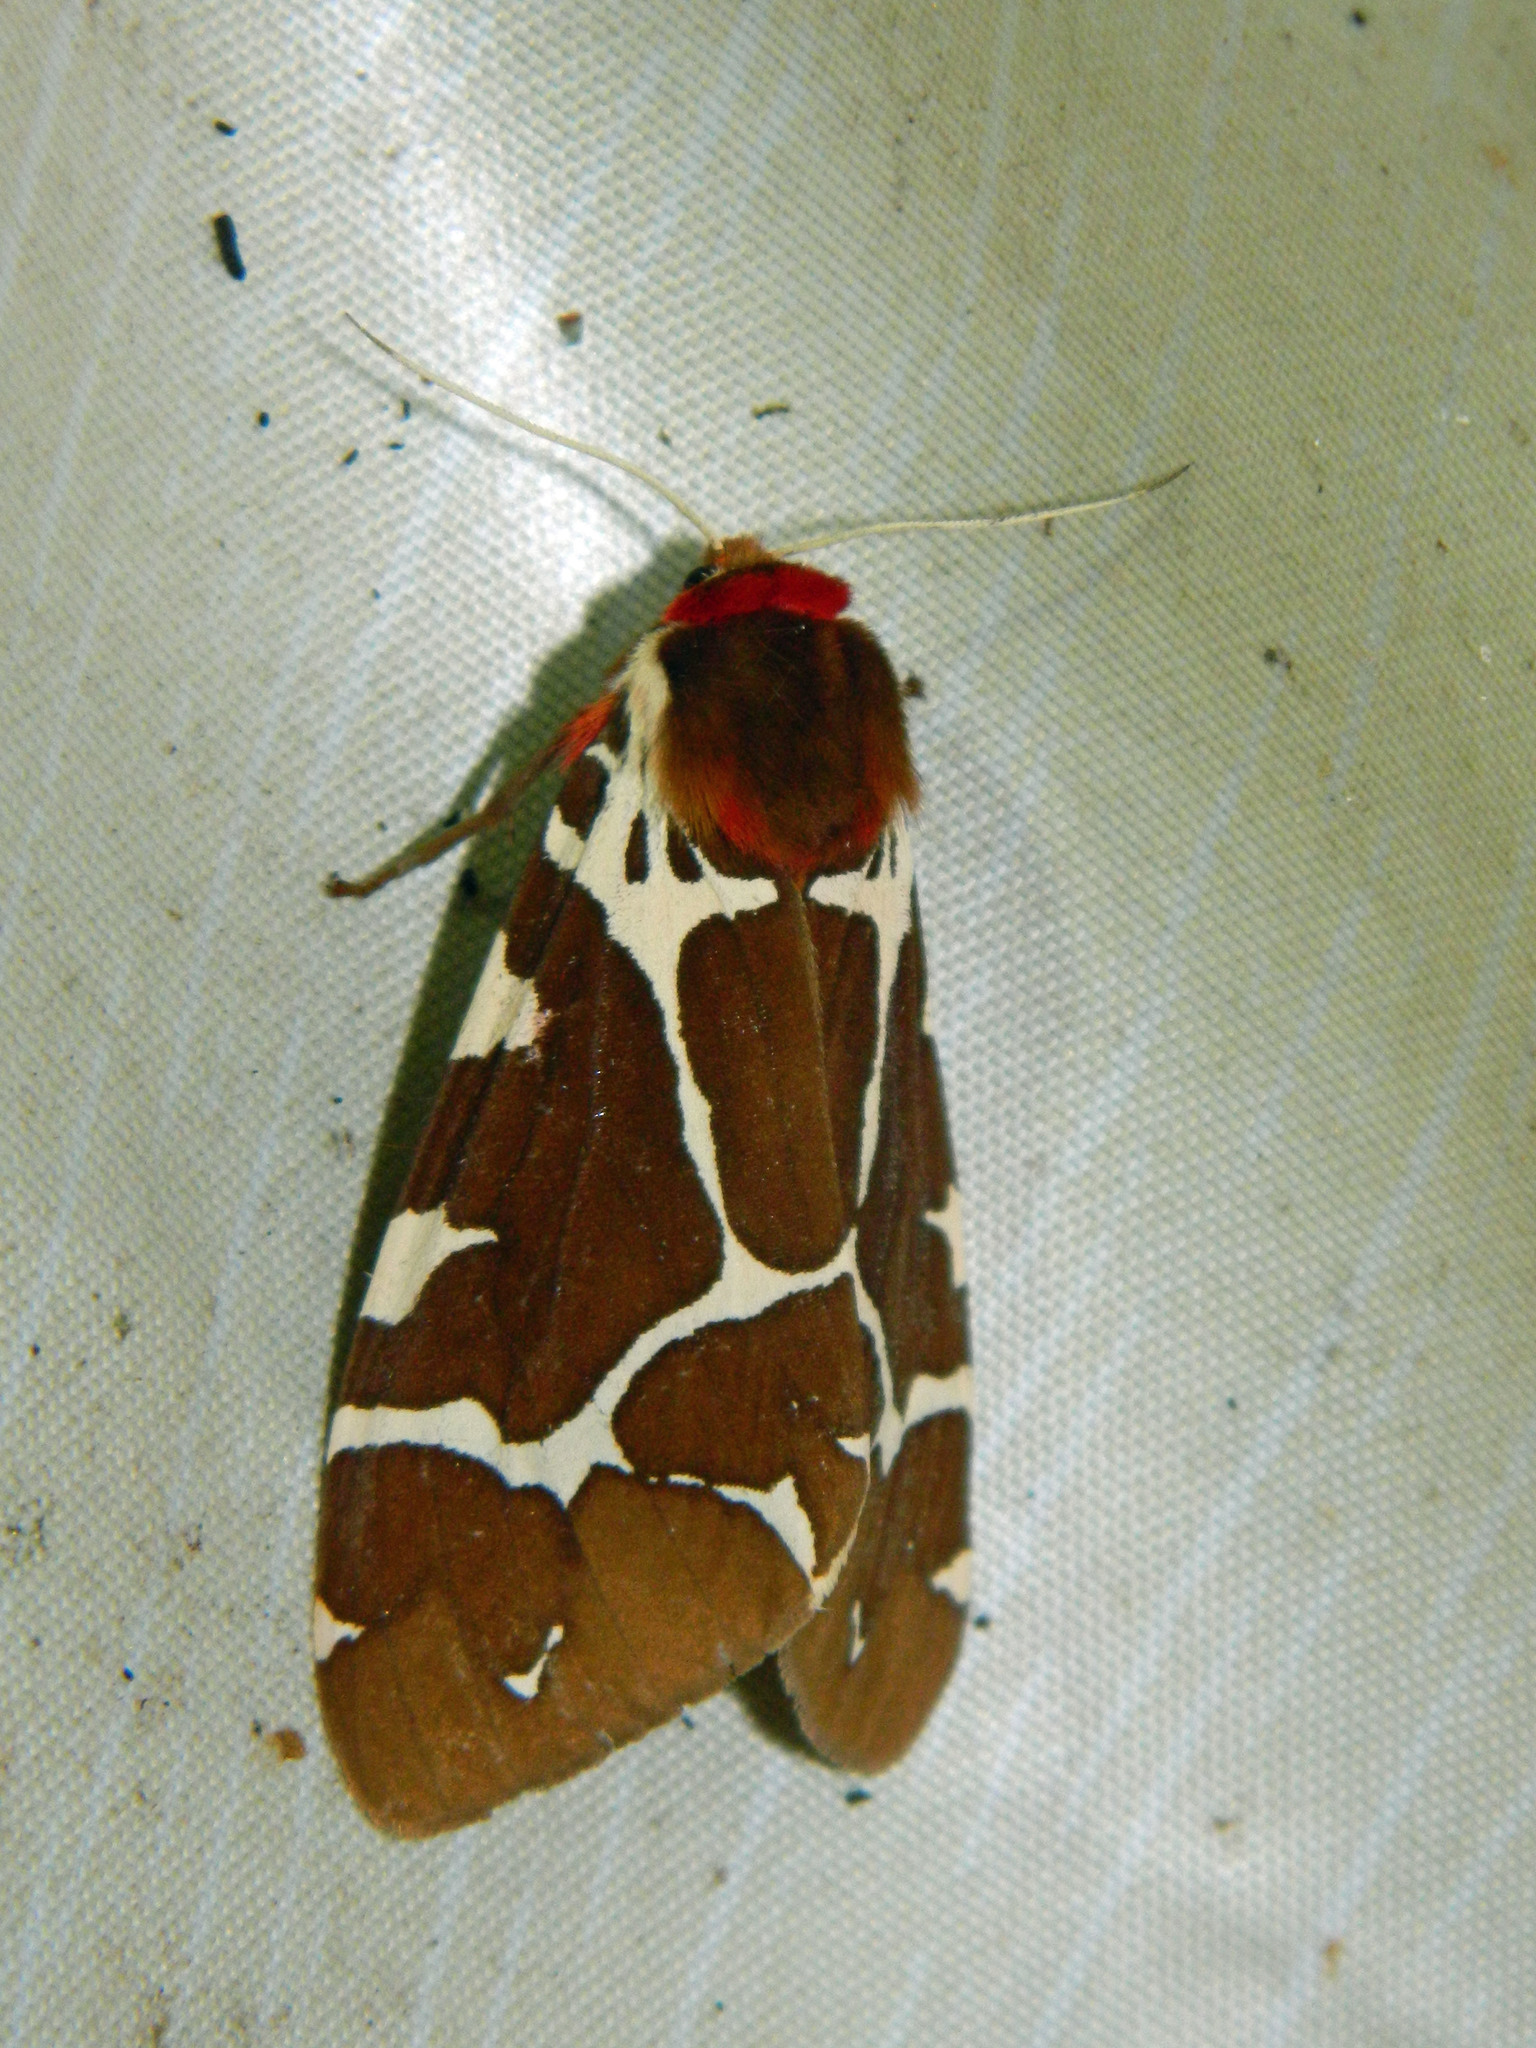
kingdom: Animalia
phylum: Arthropoda
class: Insecta
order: Lepidoptera
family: Erebidae
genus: Arctia
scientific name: Arctia caja
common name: Garden tiger
